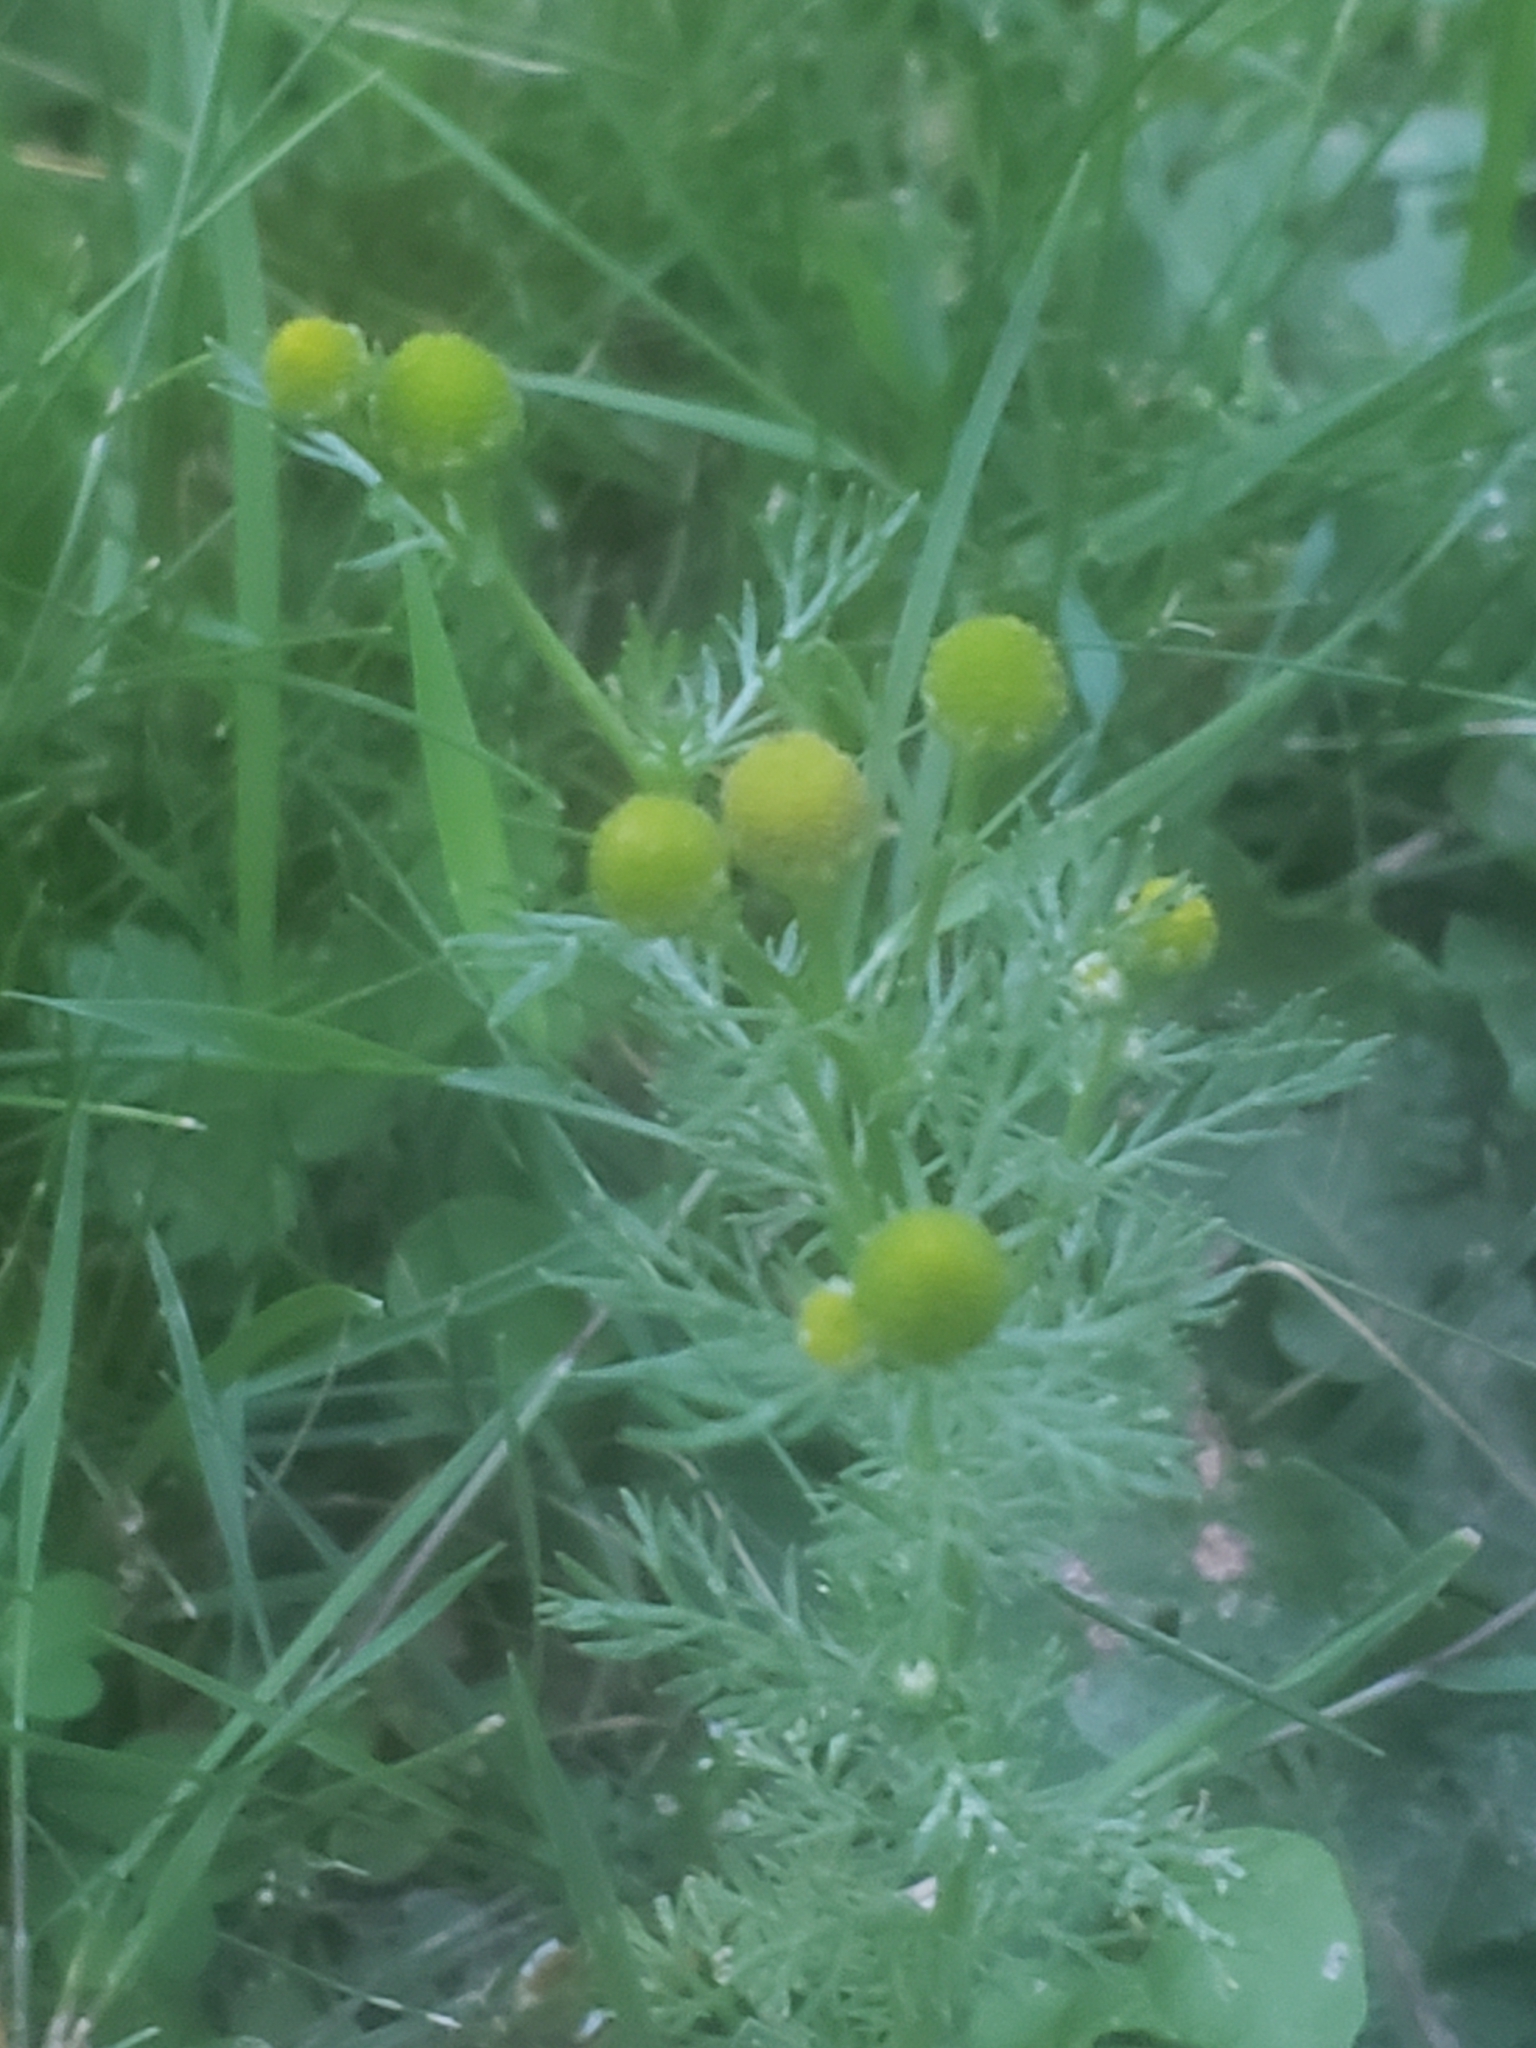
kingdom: Plantae
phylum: Tracheophyta
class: Magnoliopsida
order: Asterales
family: Asteraceae
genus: Matricaria
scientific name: Matricaria discoidea
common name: Disc mayweed
